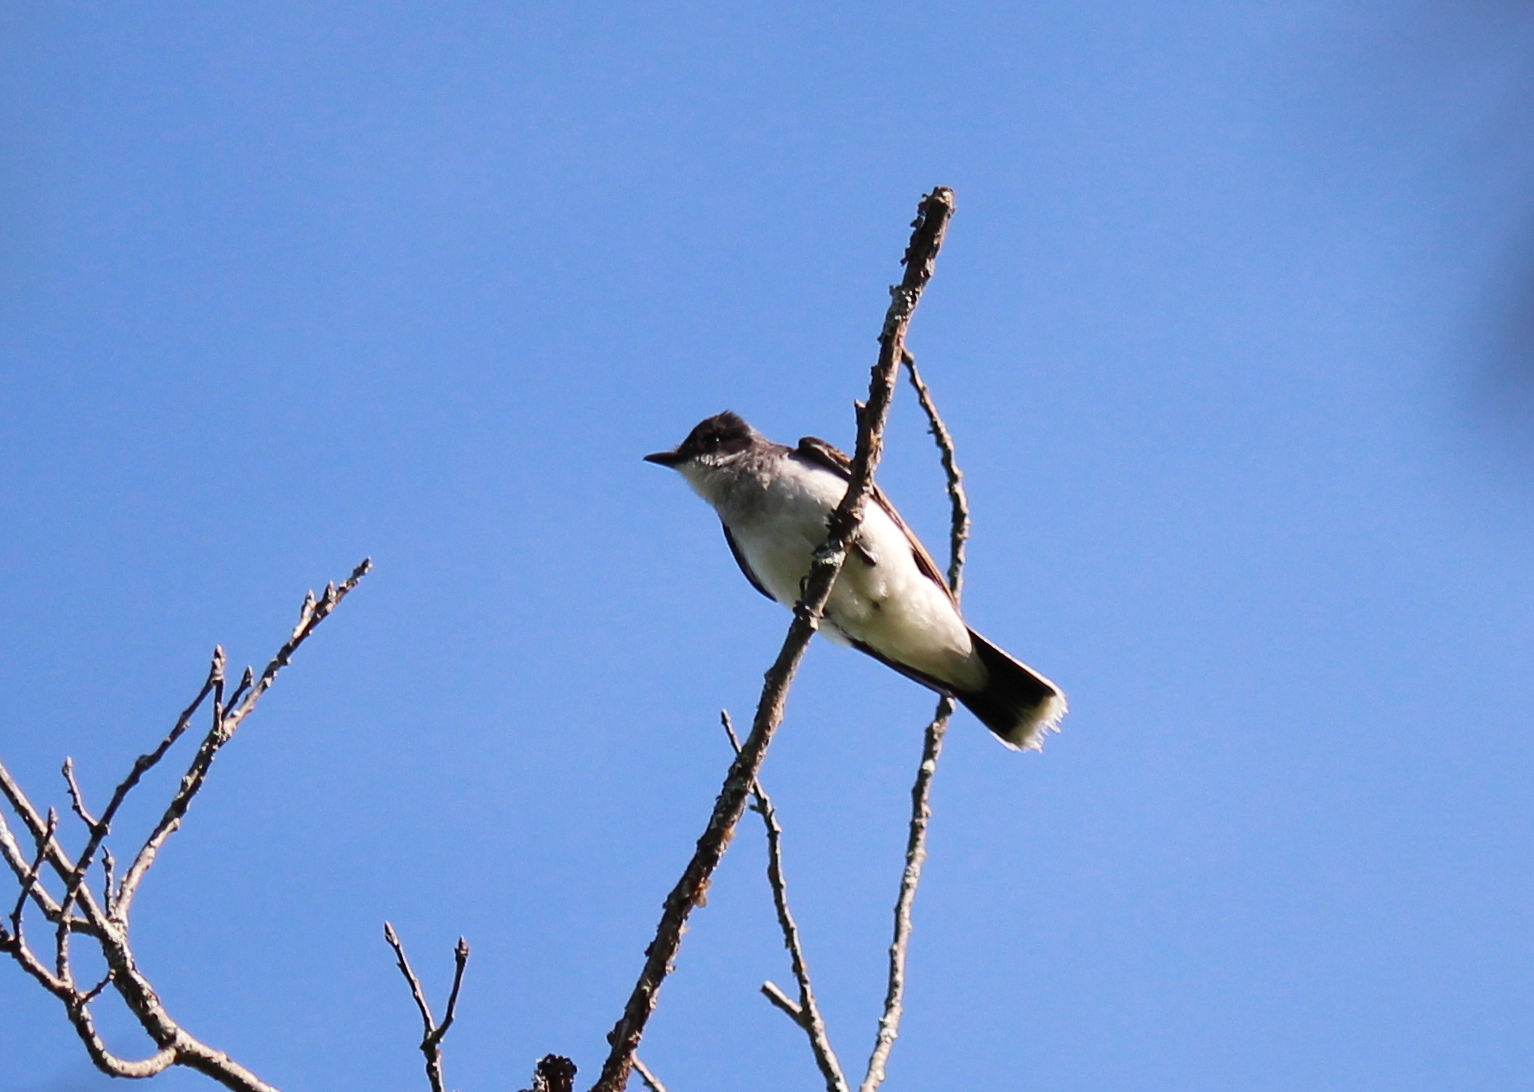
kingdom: Animalia
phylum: Chordata
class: Aves
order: Passeriformes
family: Tyrannidae
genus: Tyrannus
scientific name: Tyrannus tyrannus
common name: Eastern kingbird
